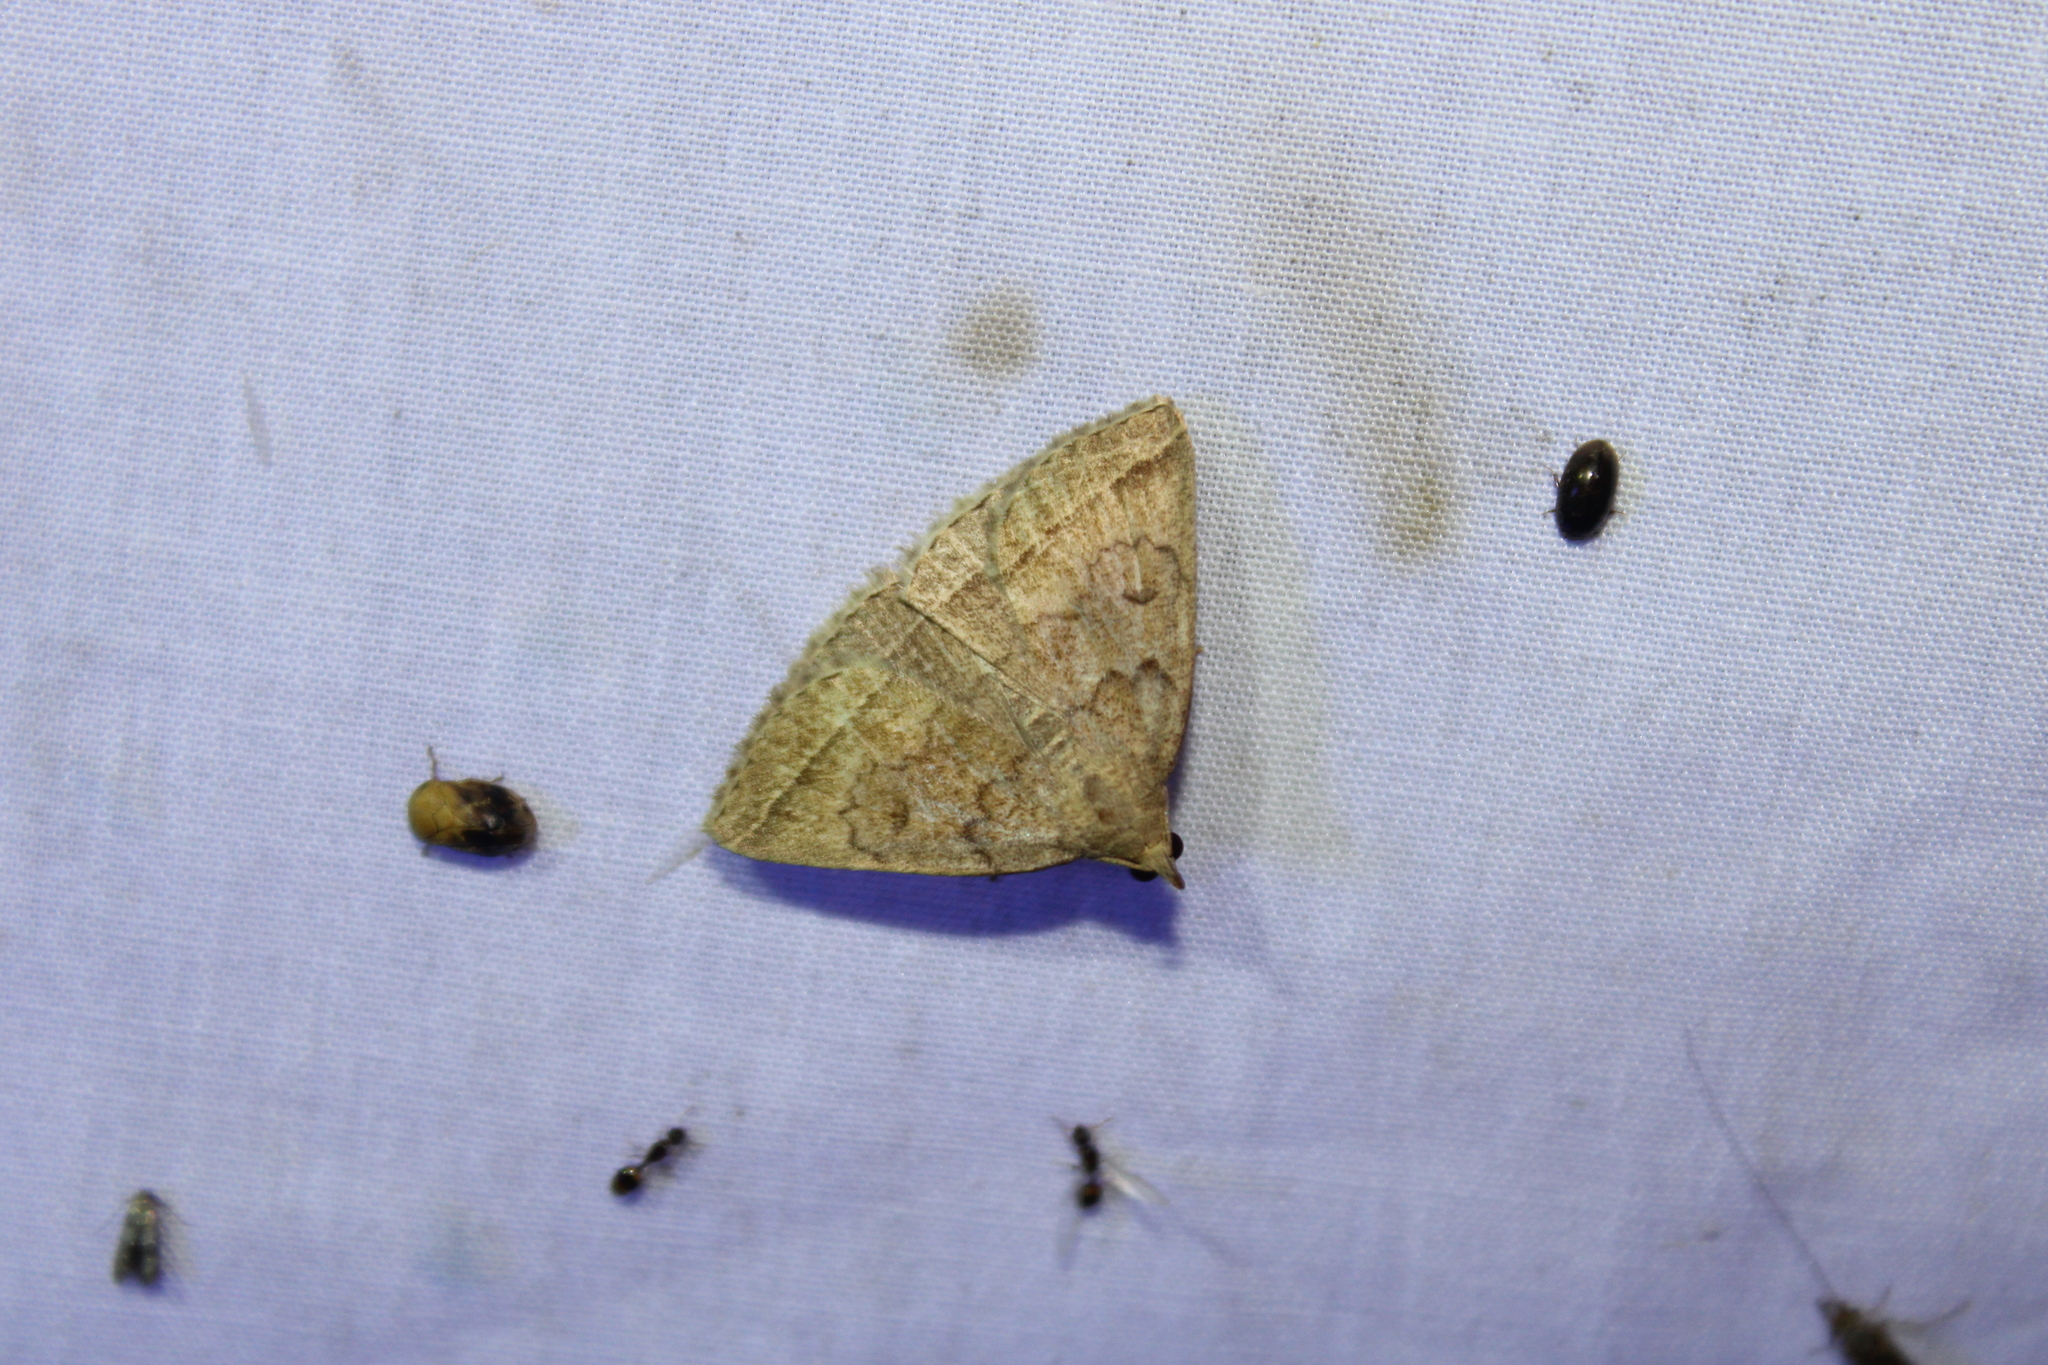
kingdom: Animalia
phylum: Arthropoda
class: Insecta
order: Lepidoptera
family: Erebidae
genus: Zanclognatha
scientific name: Zanclognatha jacchusalis
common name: Yellowish zanclognatha
